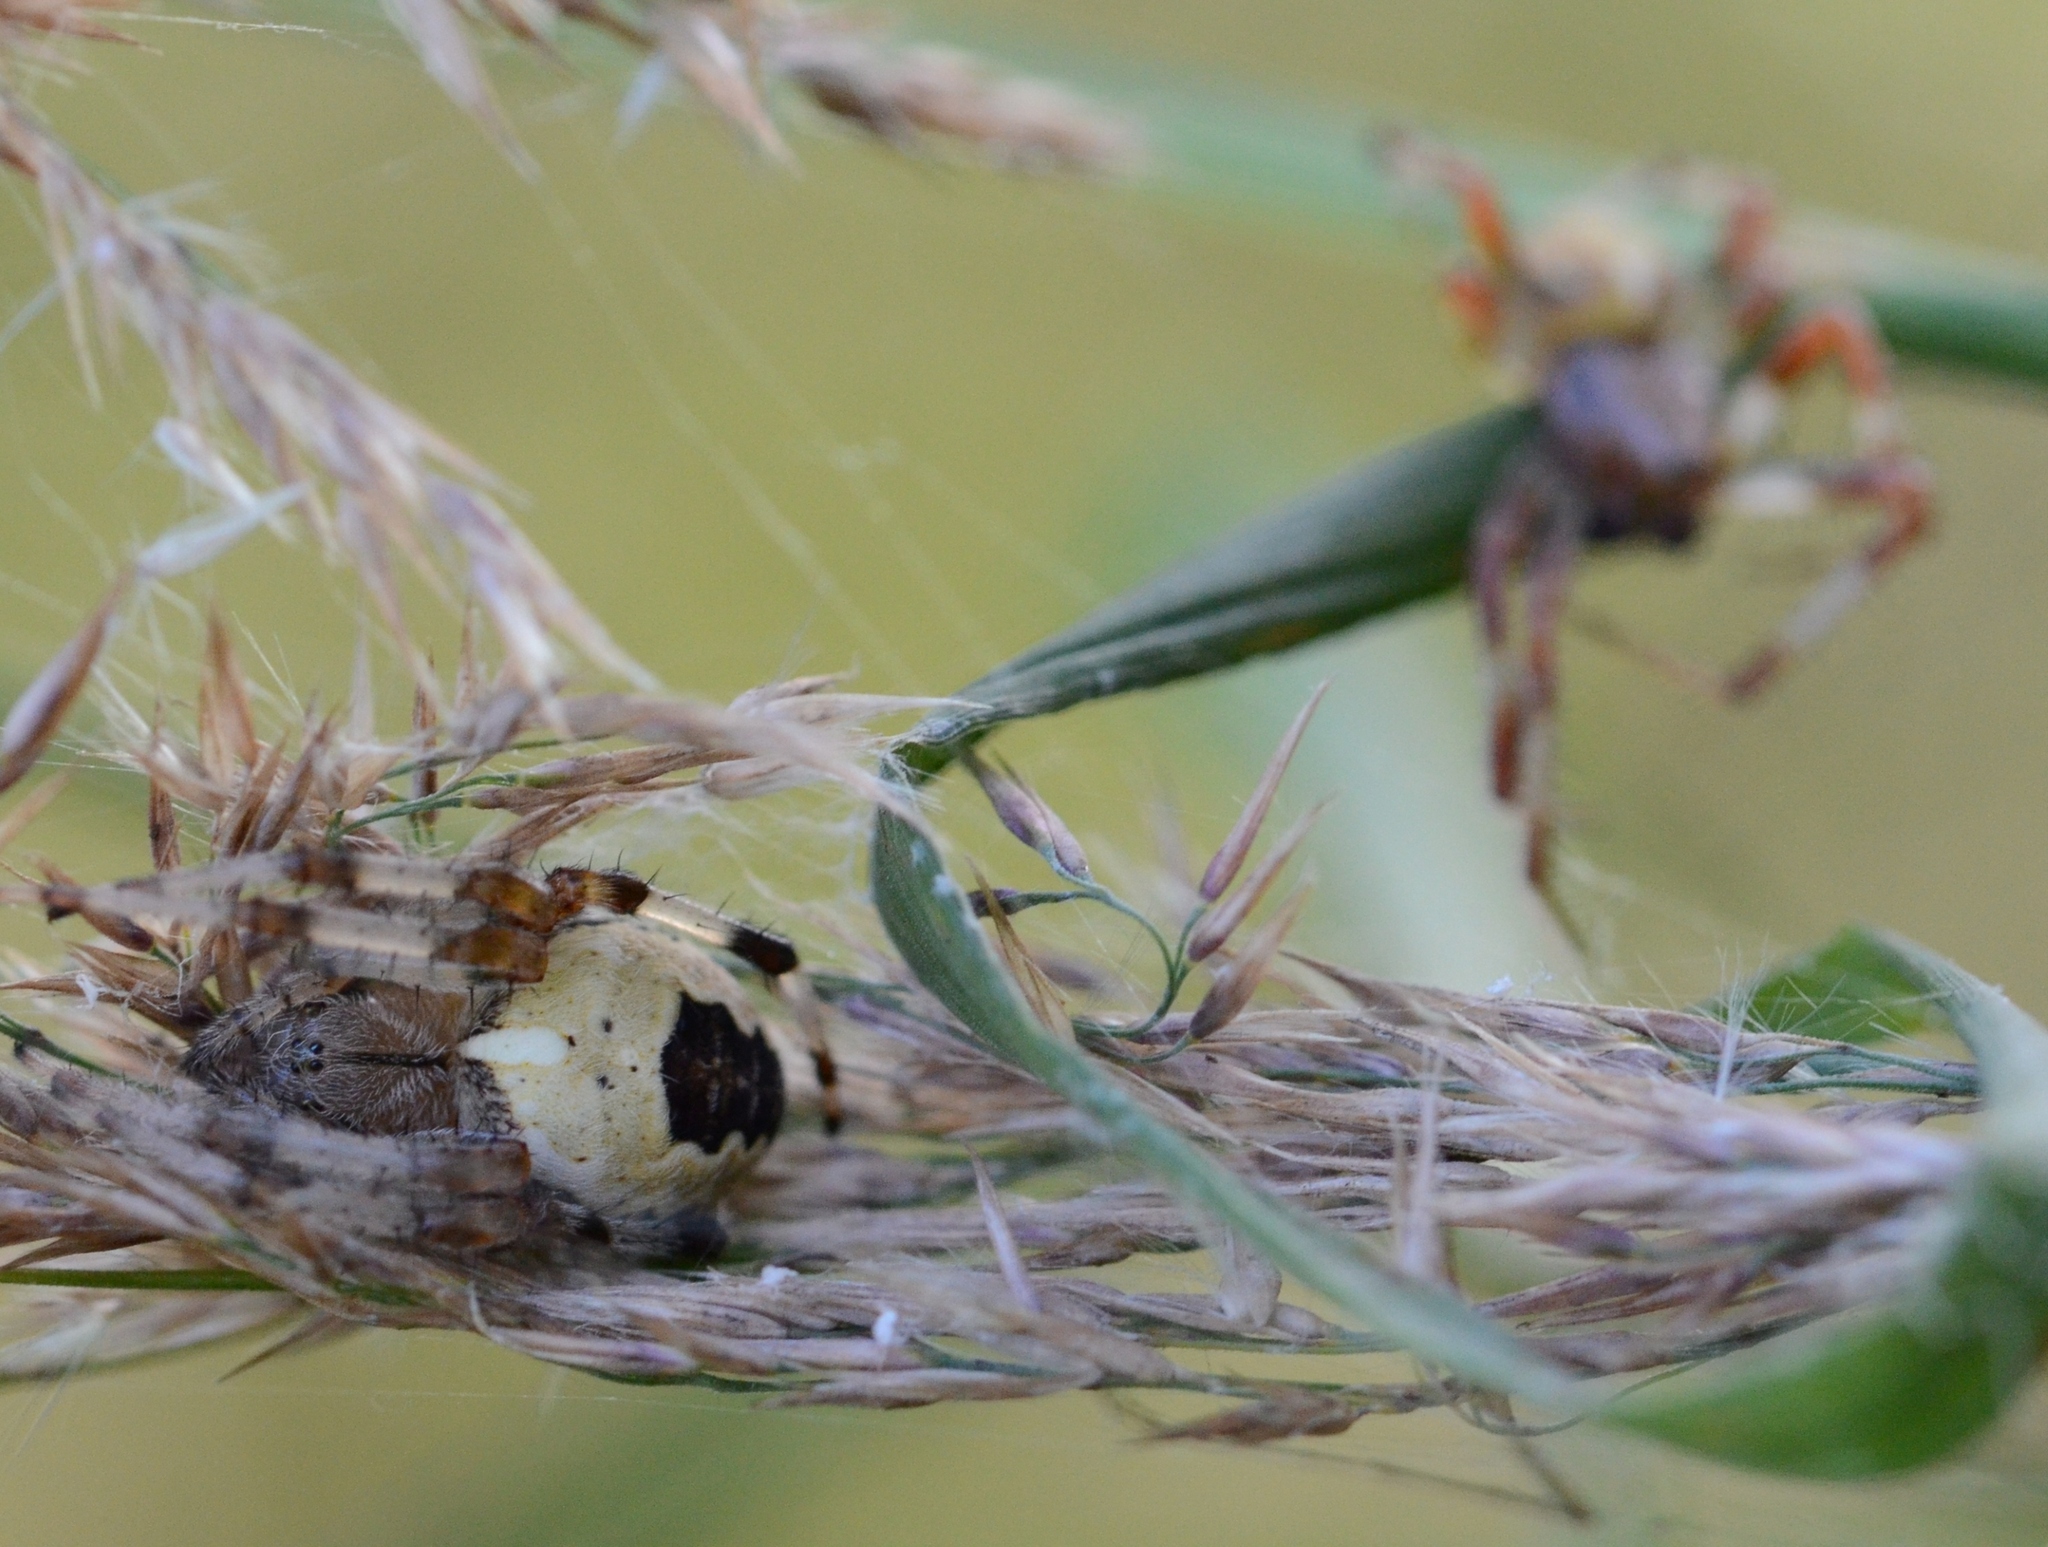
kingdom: Animalia
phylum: Arthropoda
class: Arachnida
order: Araneae
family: Araneidae
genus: Araneus
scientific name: Araneus marmoreus
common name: Marbled orbweaver
